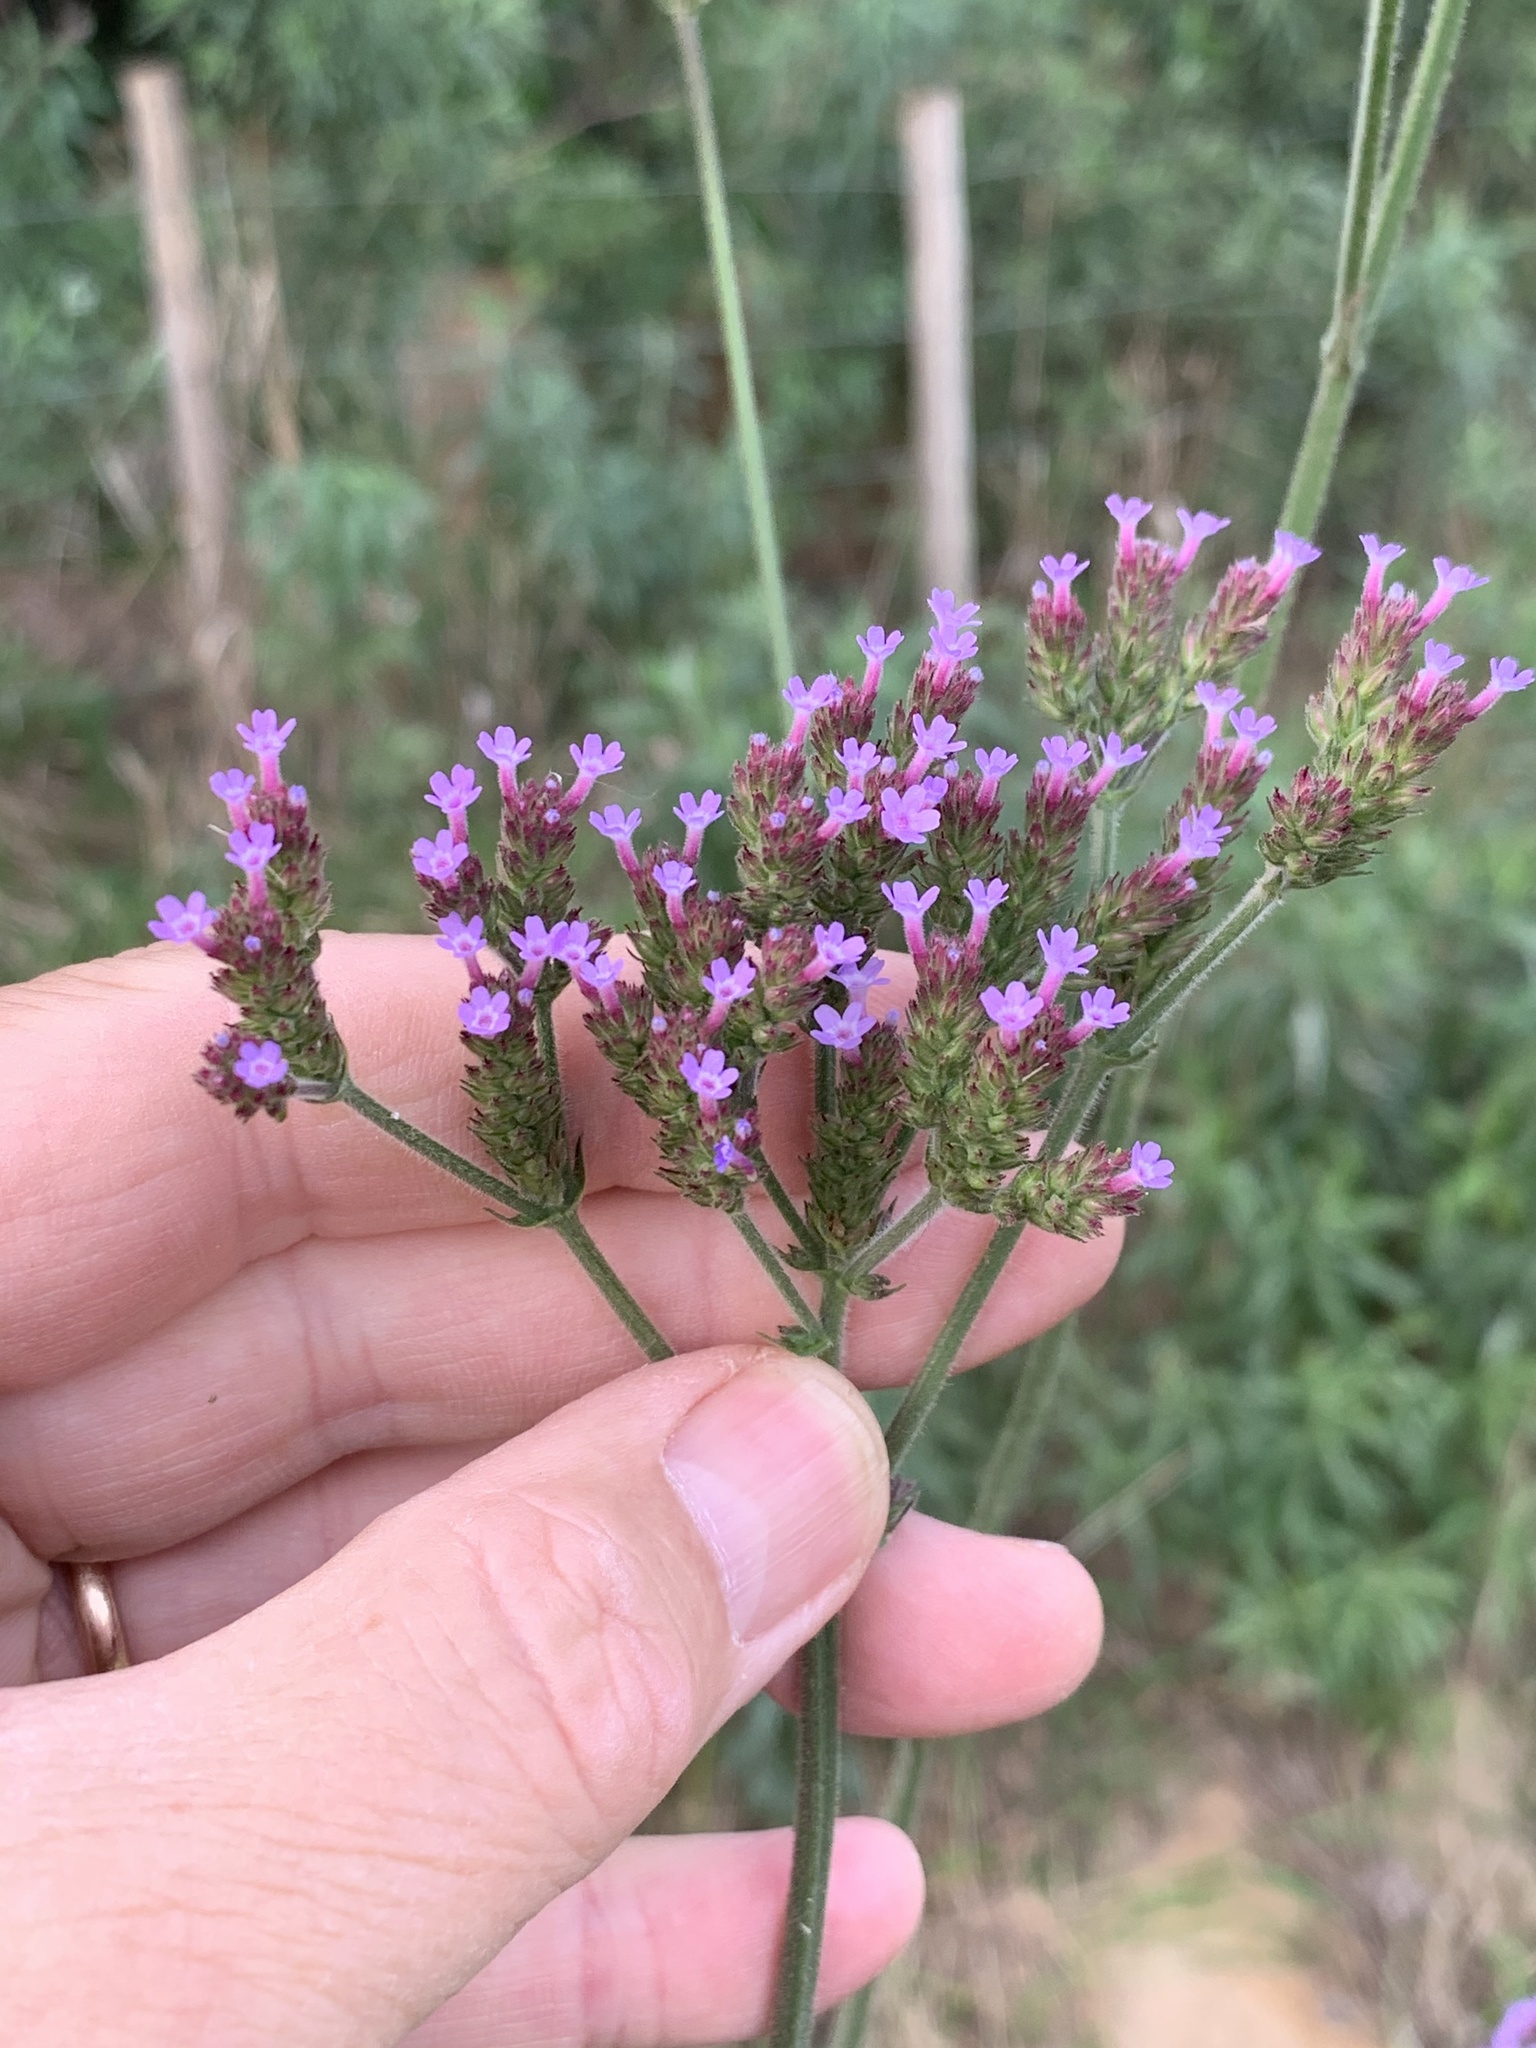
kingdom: Plantae
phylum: Tracheophyta
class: Magnoliopsida
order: Lamiales
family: Verbenaceae
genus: Verbena
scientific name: Verbena bonariensis
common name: Purpletop vervain
